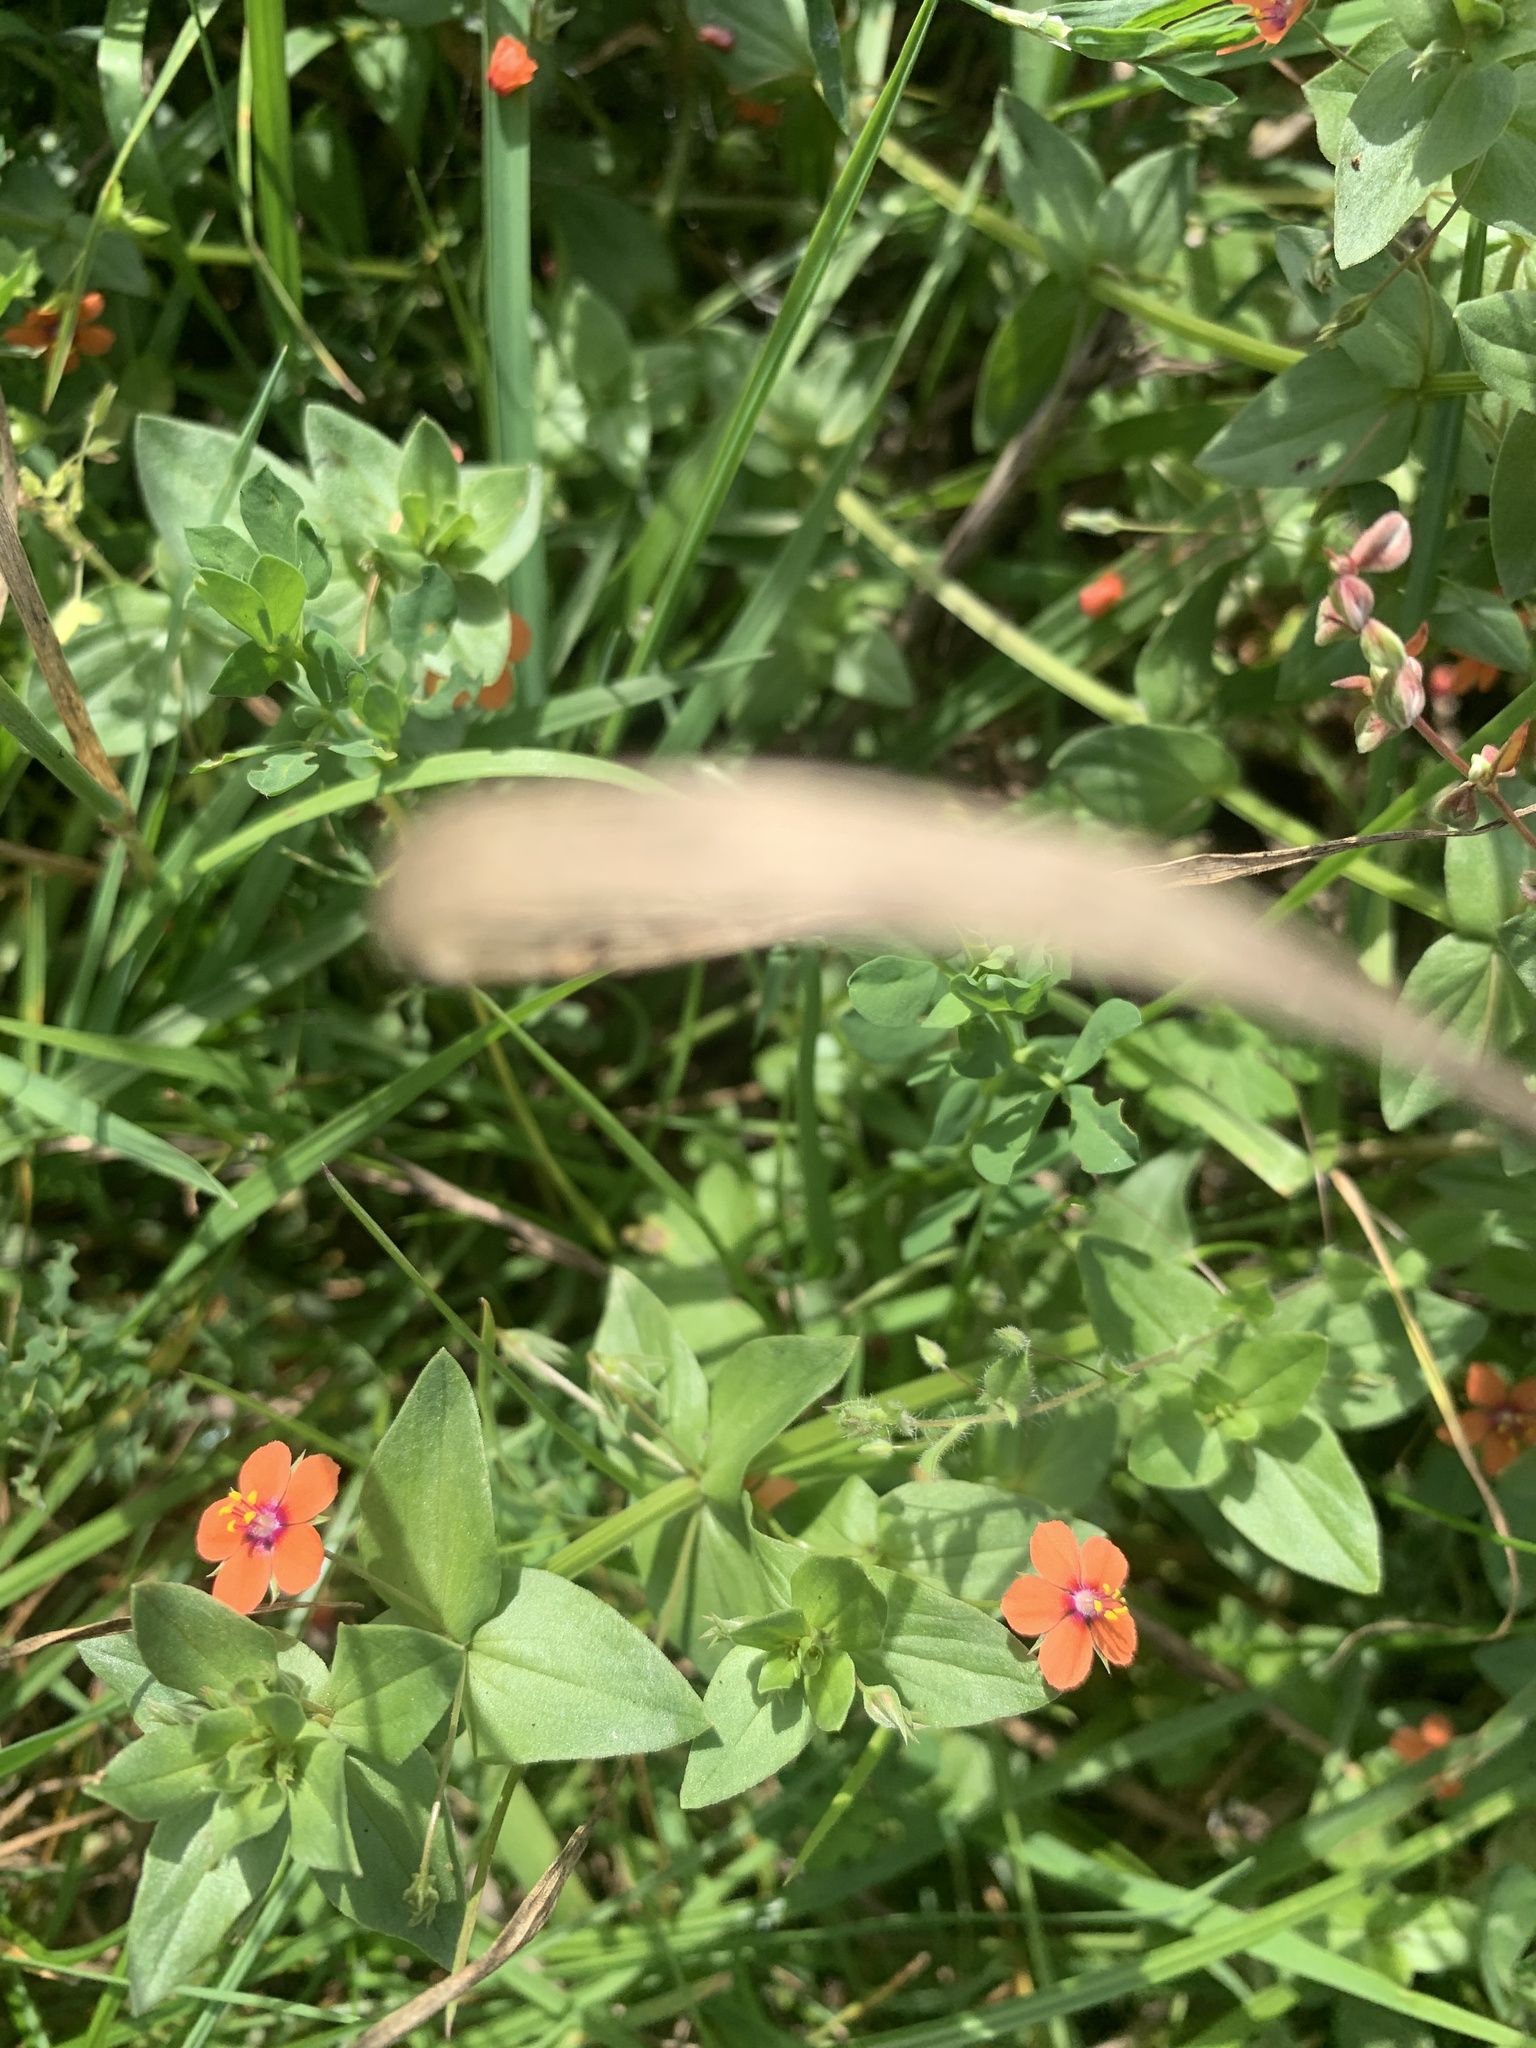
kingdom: Plantae
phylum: Tracheophyta
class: Magnoliopsida
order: Ericales
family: Primulaceae
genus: Lysimachia
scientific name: Lysimachia arvensis
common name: Scarlet pimpernel
